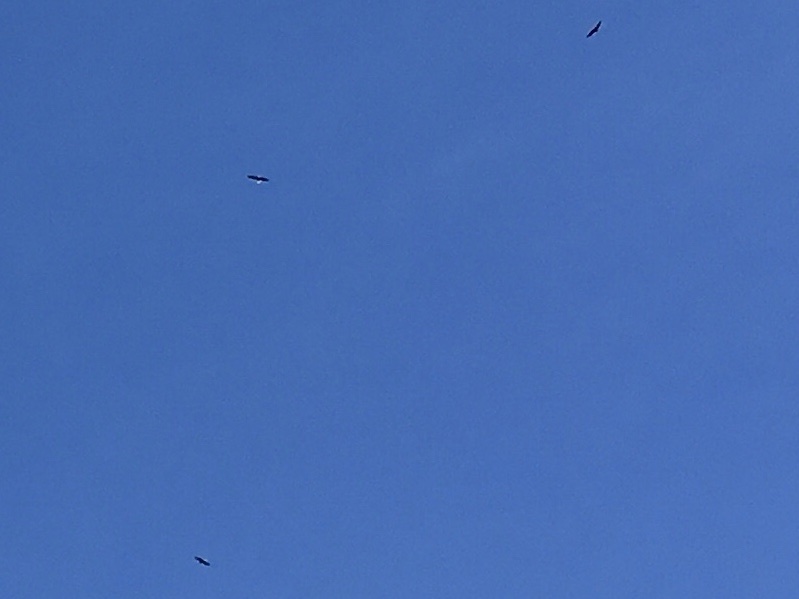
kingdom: Animalia
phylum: Chordata
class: Aves
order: Accipitriformes
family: Accipitridae
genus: Haliaeetus
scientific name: Haliaeetus leucocephalus
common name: Bald eagle
